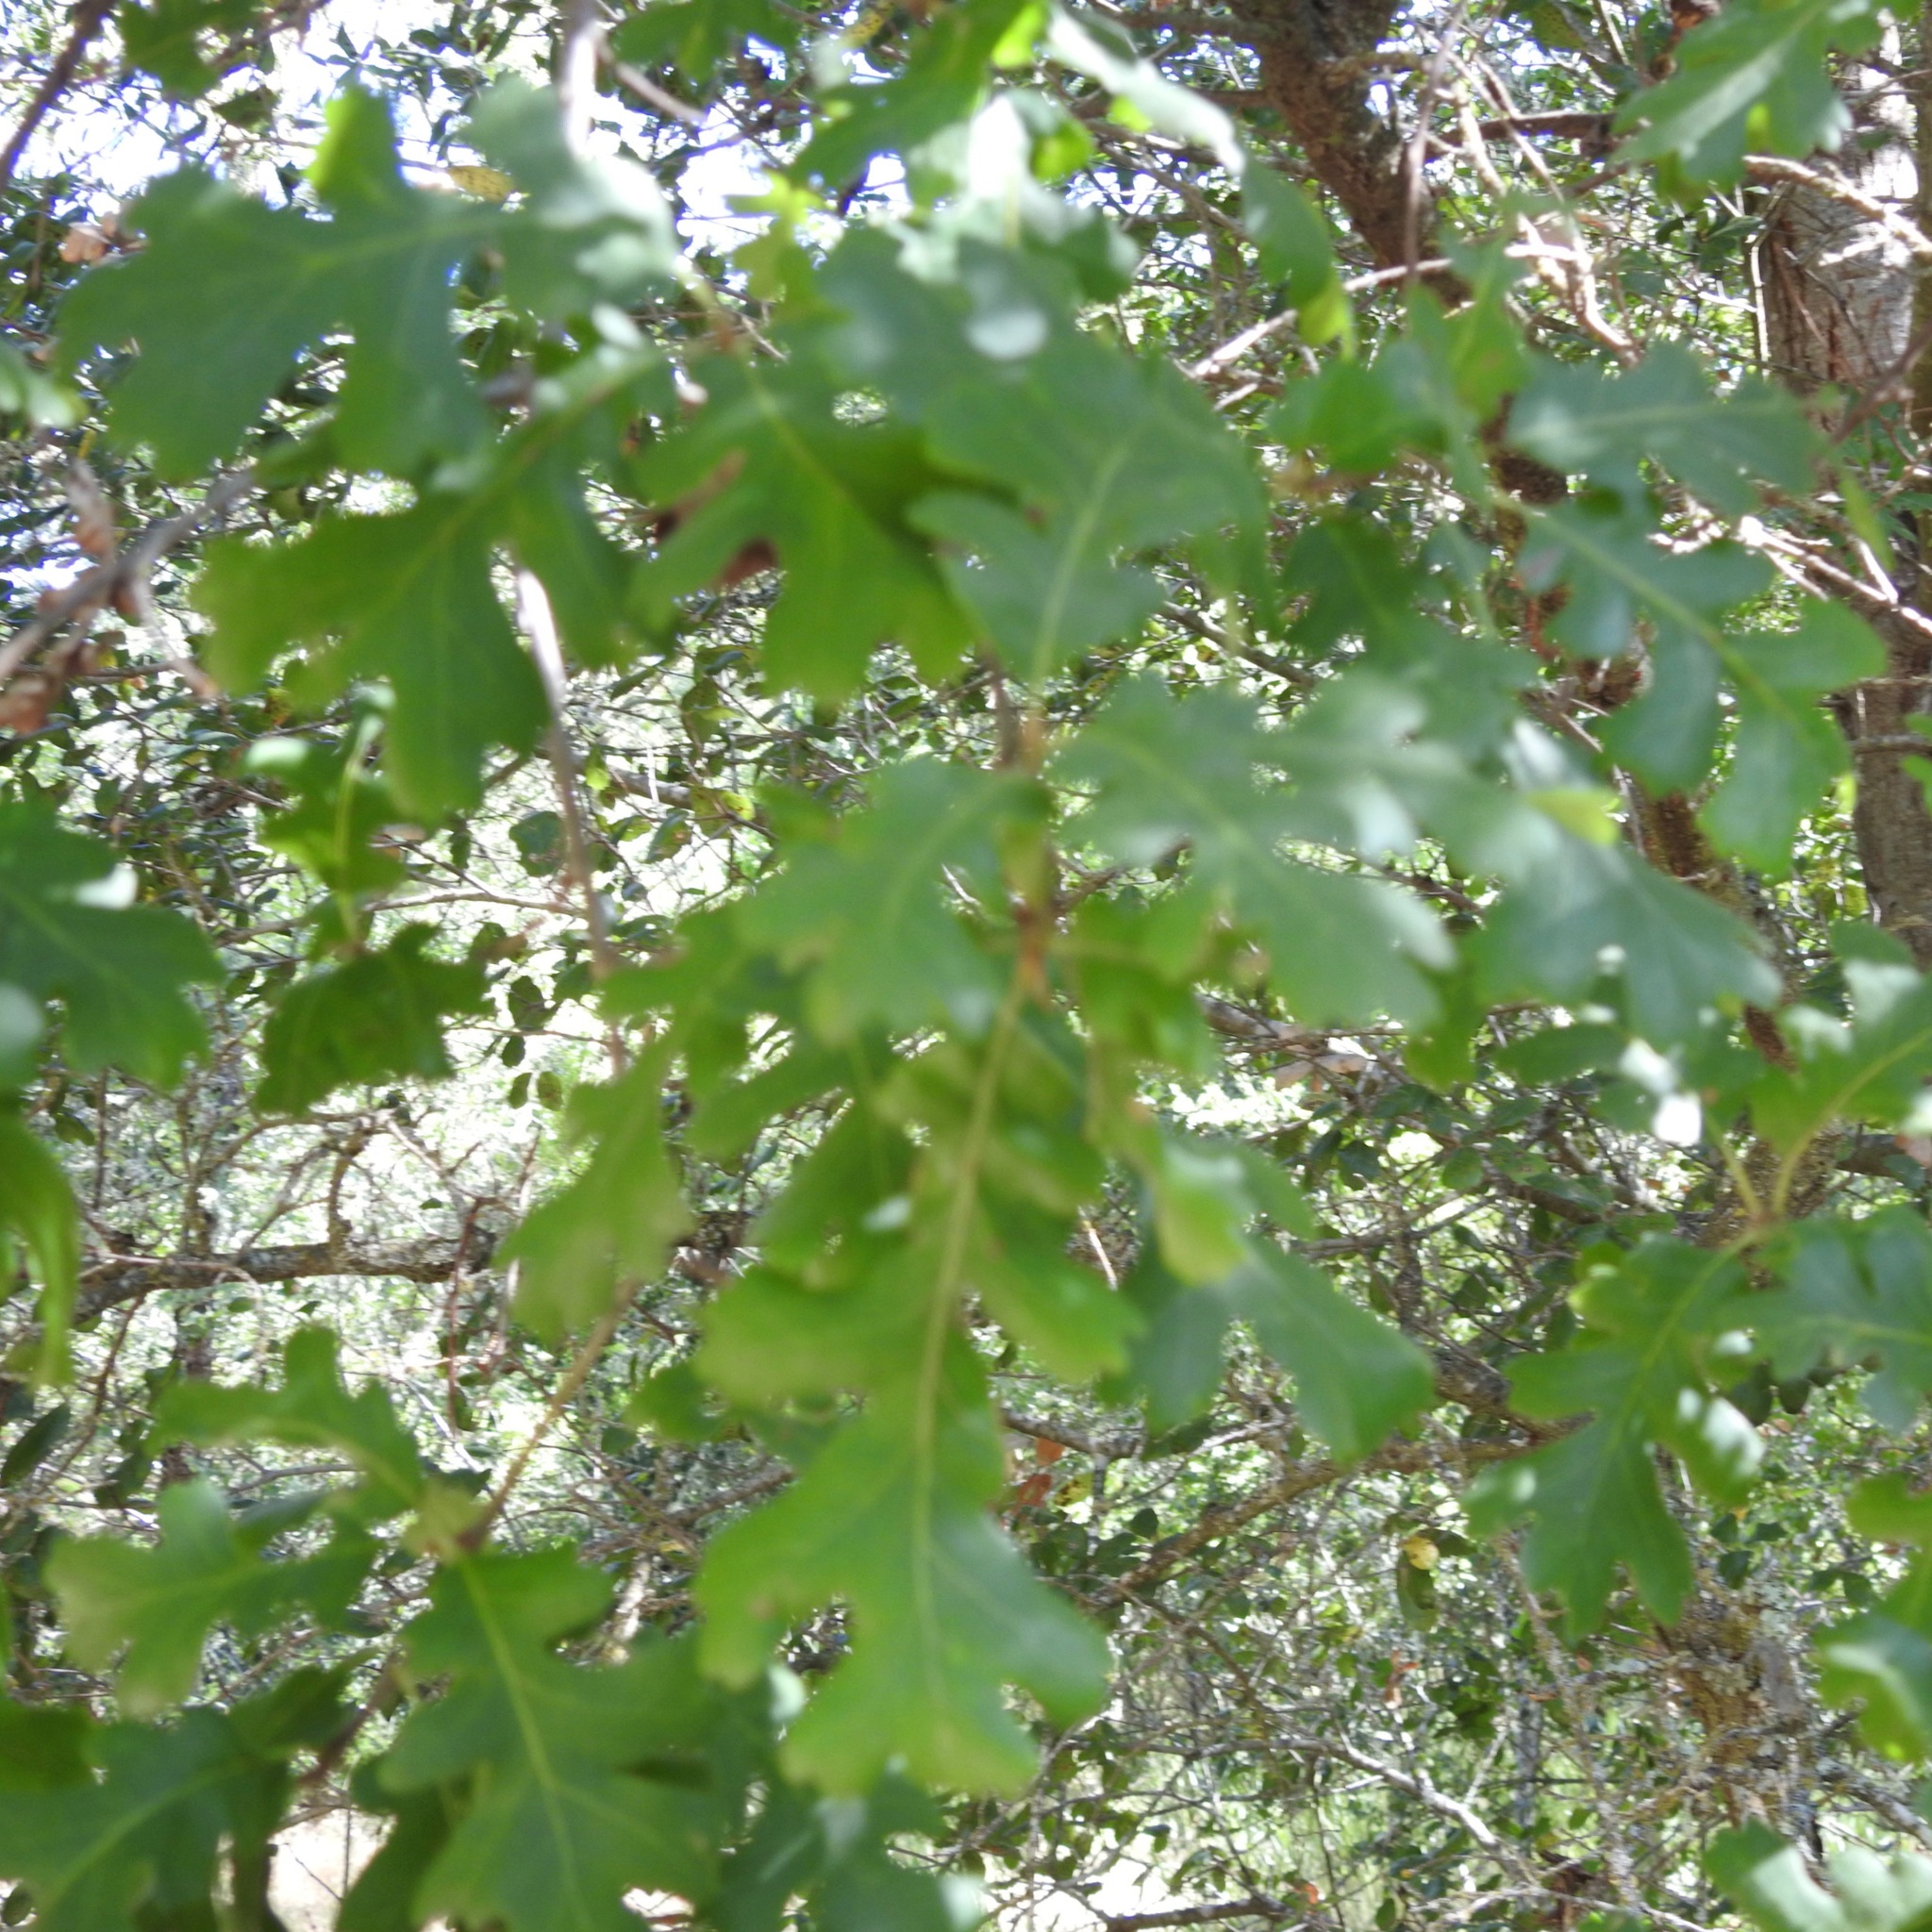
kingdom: Plantae
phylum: Tracheophyta
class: Magnoliopsida
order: Fagales
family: Fagaceae
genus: Quercus
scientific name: Quercus lobata
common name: Valley oak
